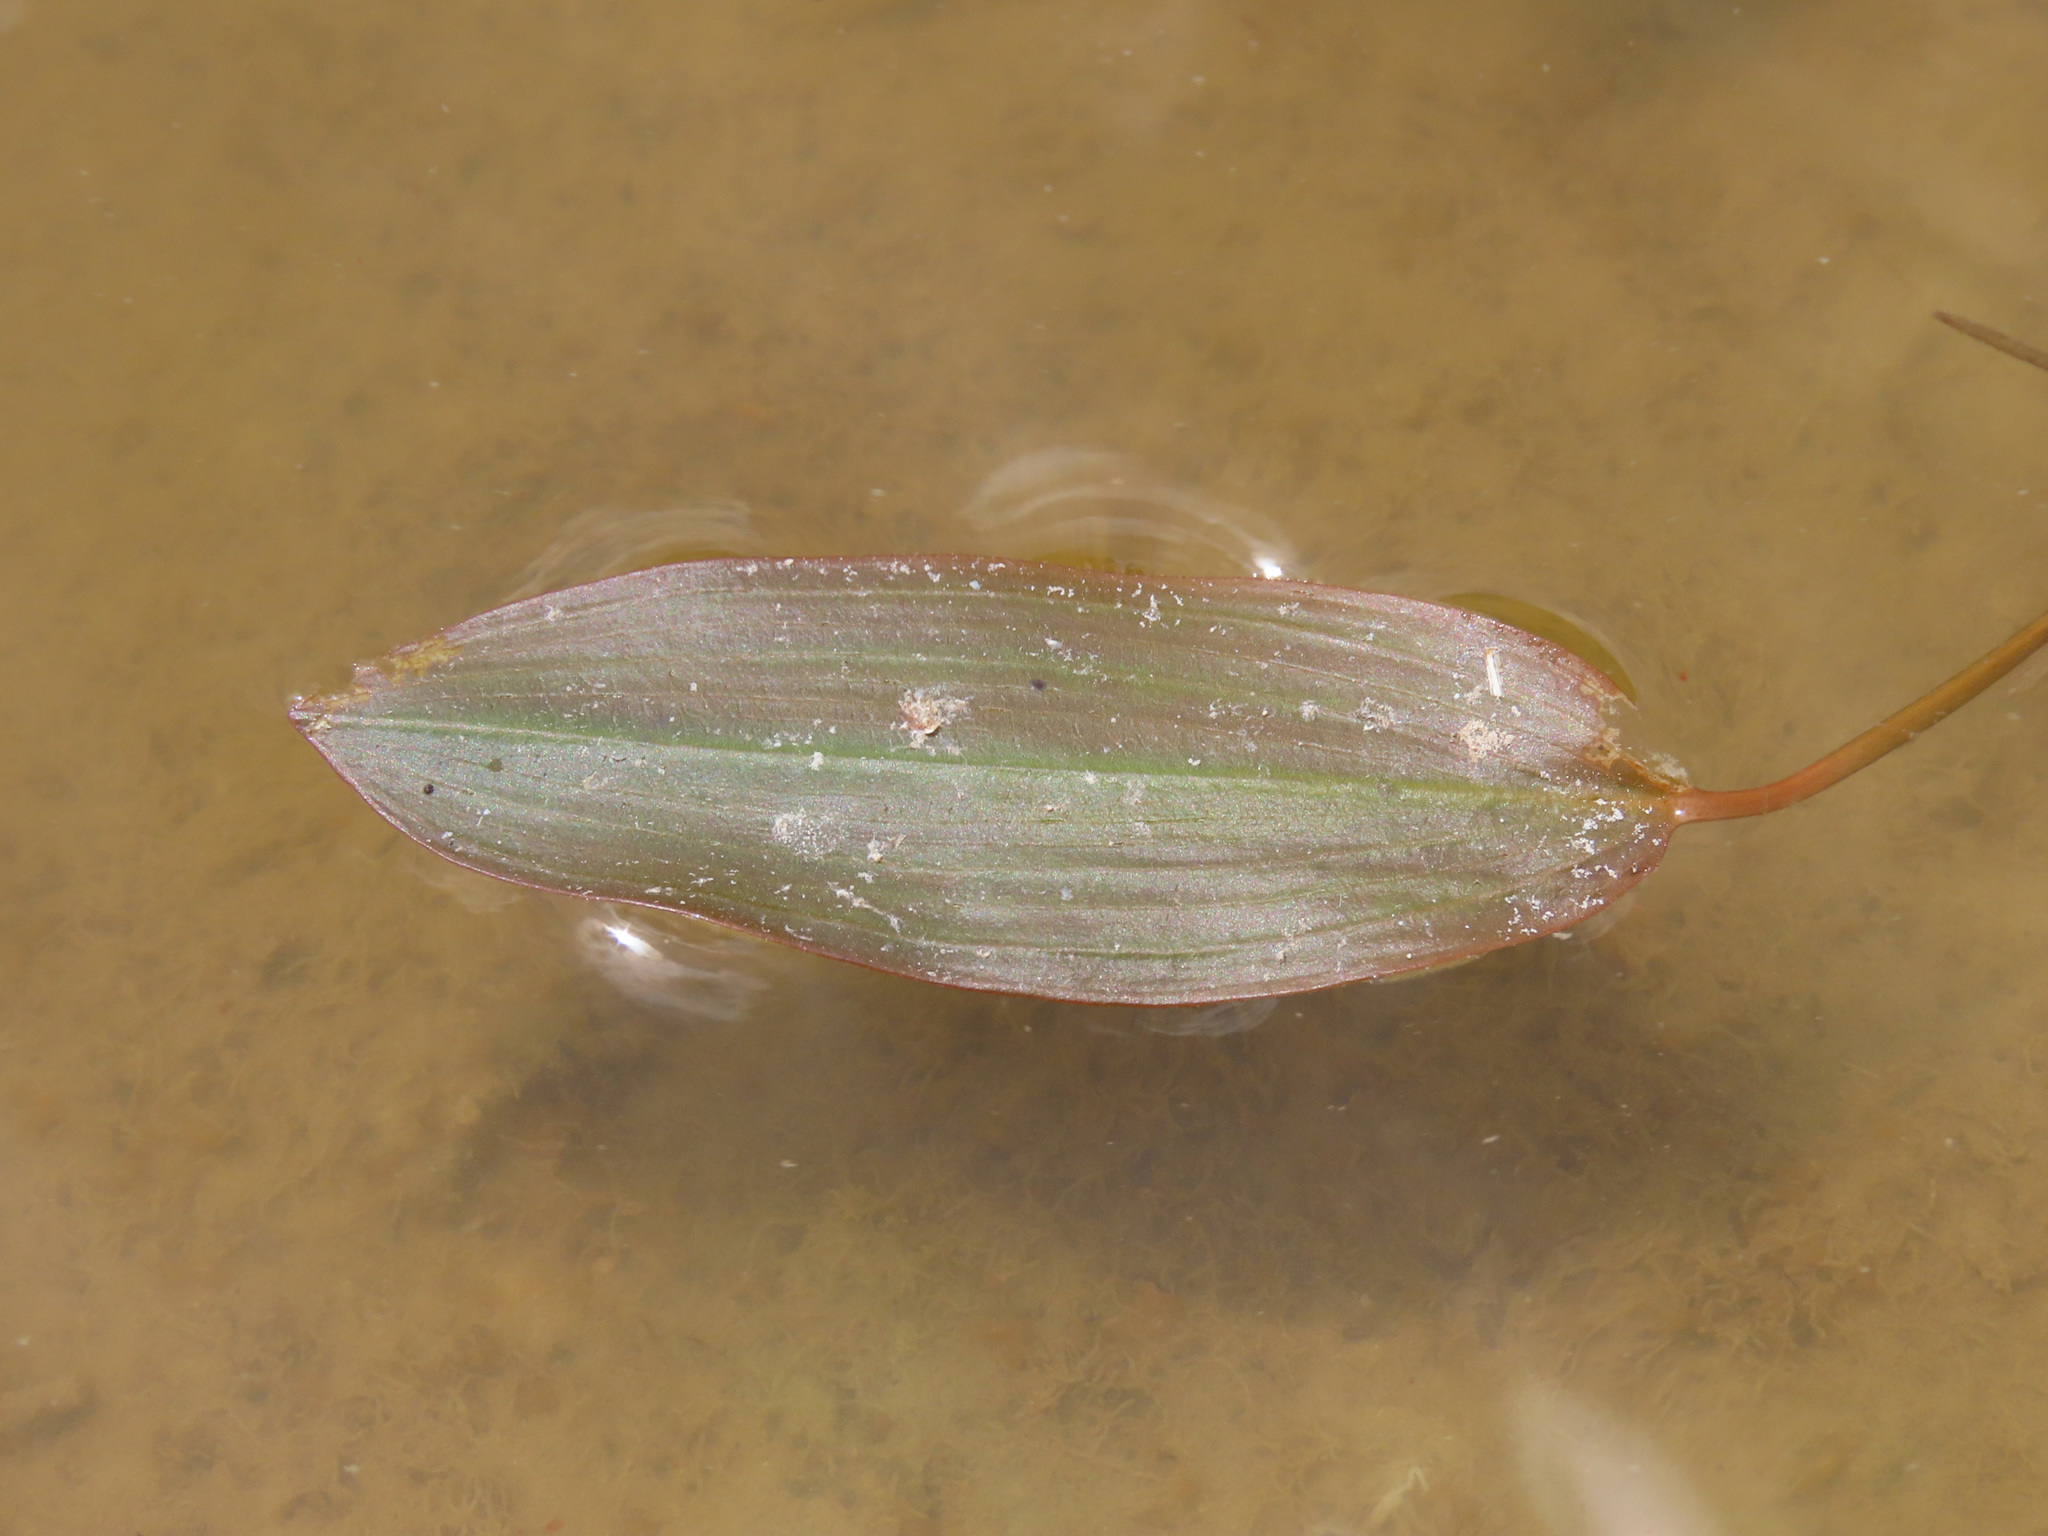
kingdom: Plantae
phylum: Tracheophyta
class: Liliopsida
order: Alismatales
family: Potamogetonaceae
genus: Potamogeton
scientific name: Potamogeton natans
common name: Broad-leaved pondweed
